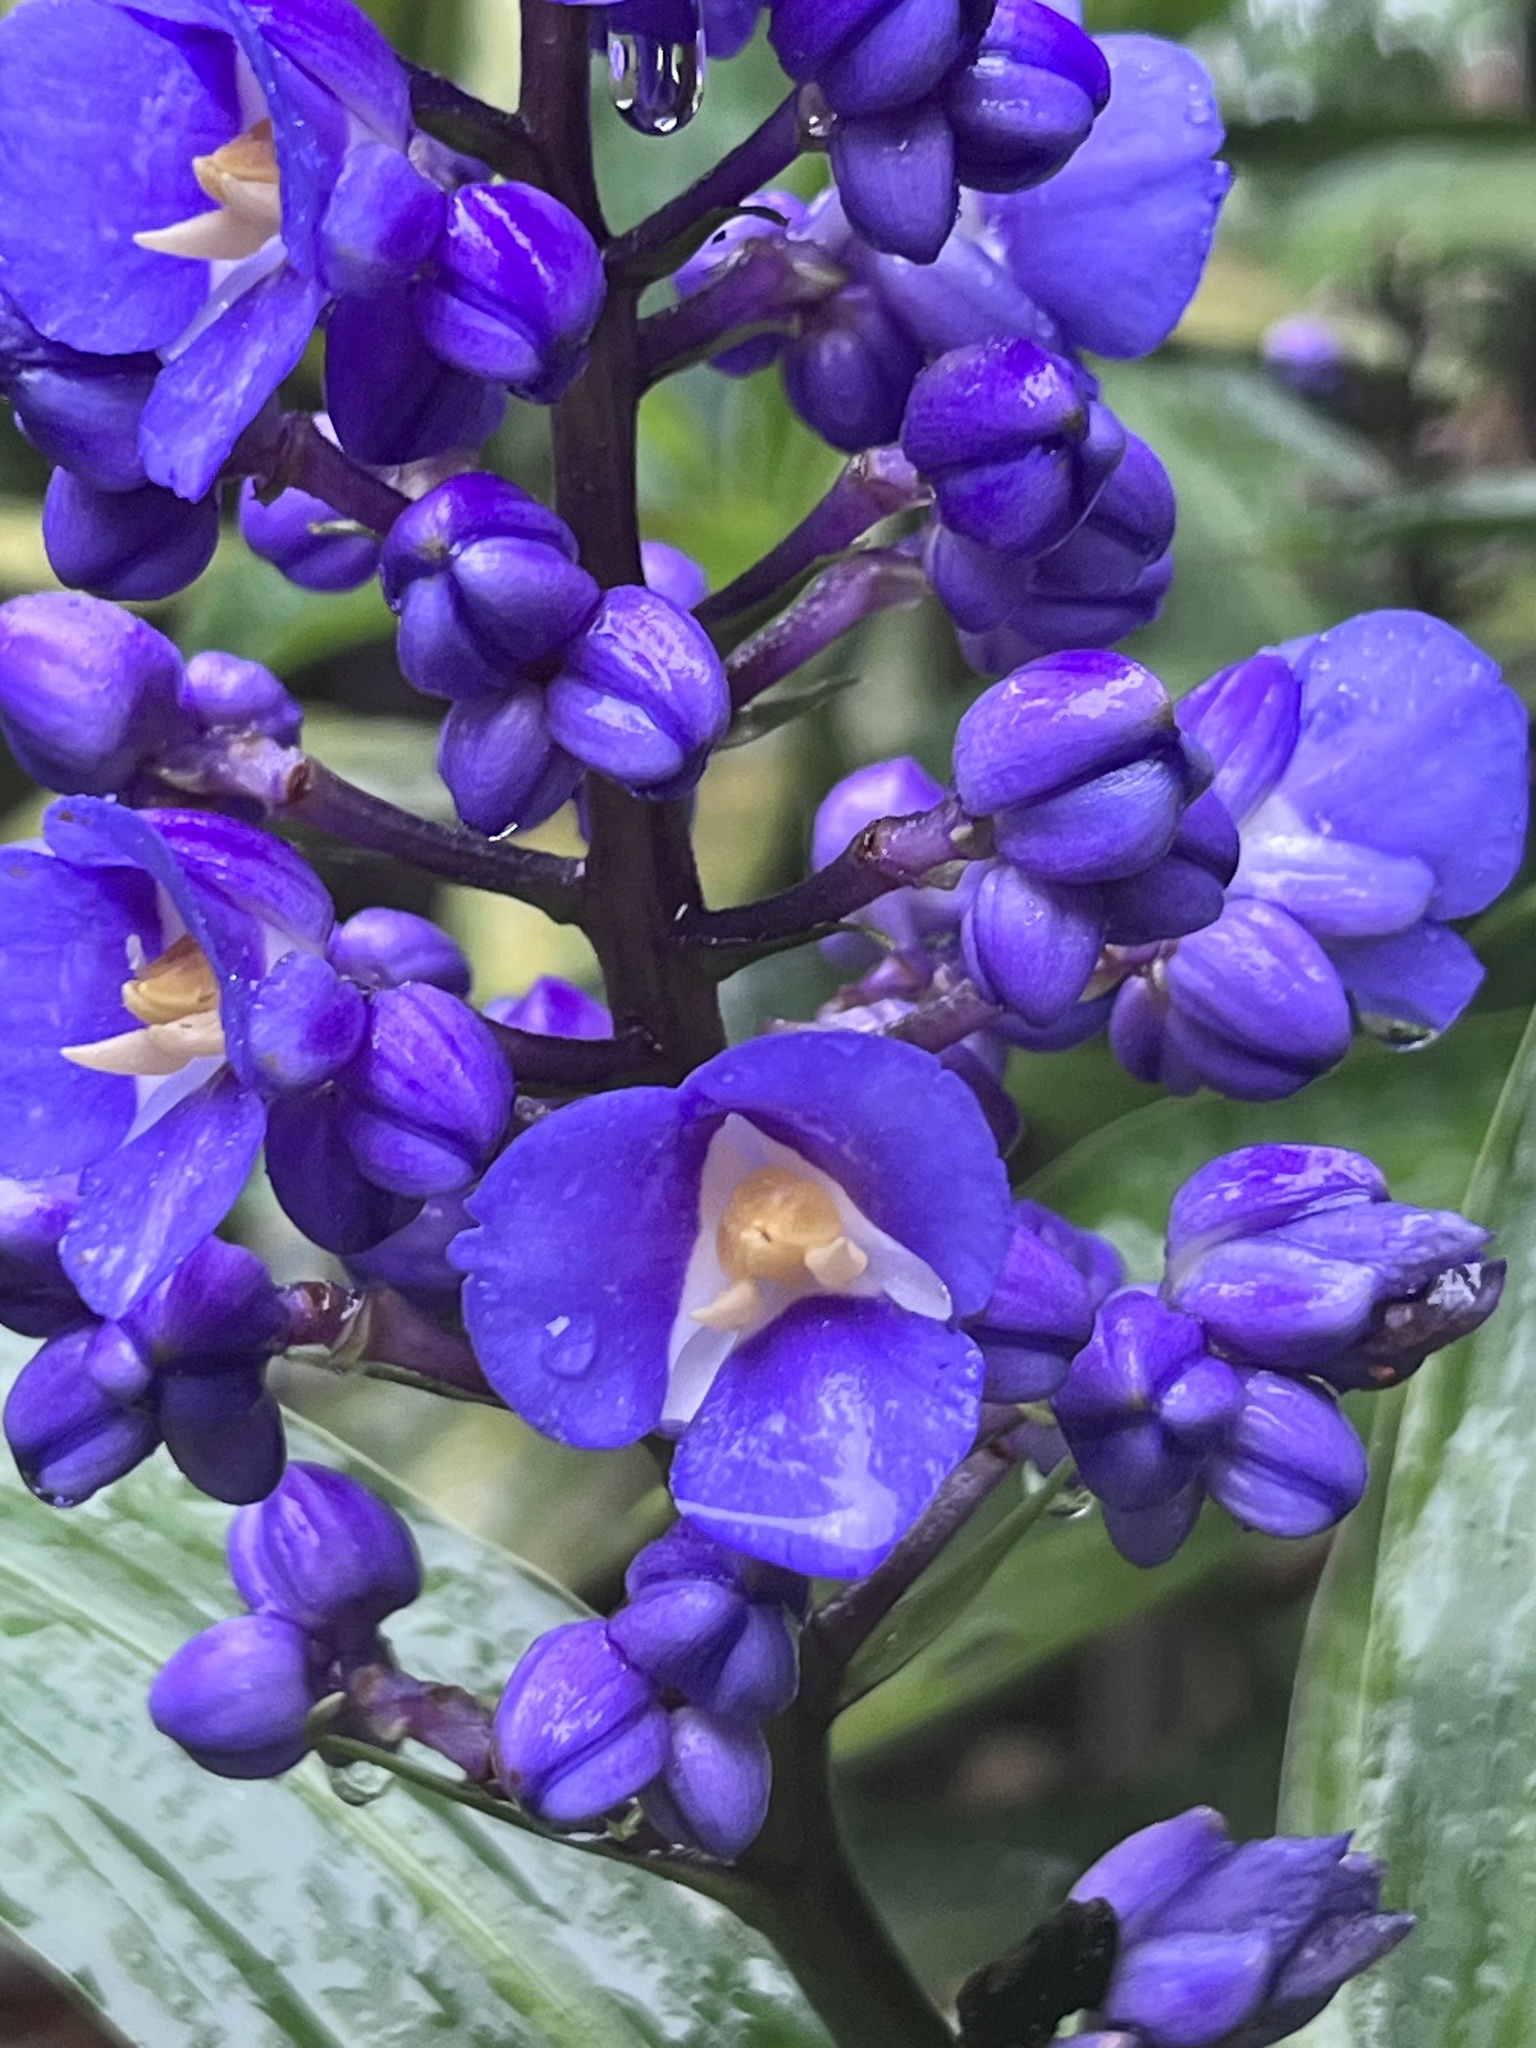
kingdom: Plantae
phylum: Tracheophyta
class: Liliopsida
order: Commelinales
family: Commelinaceae
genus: Dichorisandra
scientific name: Dichorisandra thyrsiflora
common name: Blue-ginger
